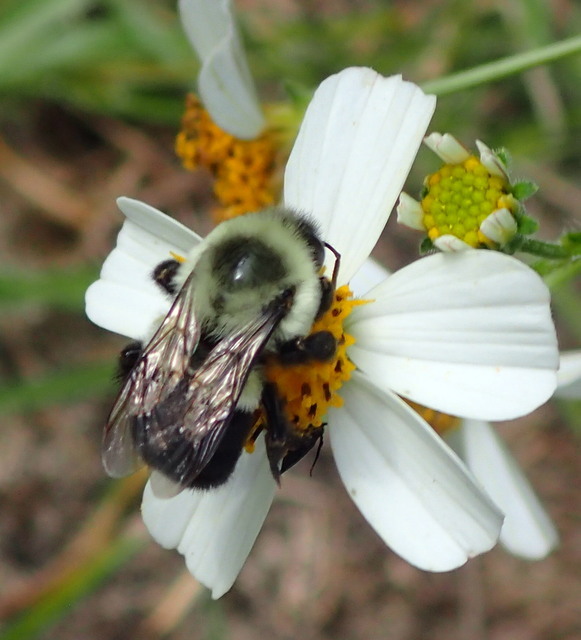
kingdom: Animalia
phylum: Arthropoda
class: Insecta
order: Hymenoptera
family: Apidae
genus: Bombus
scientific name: Bombus impatiens
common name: Common eastern bumble bee
